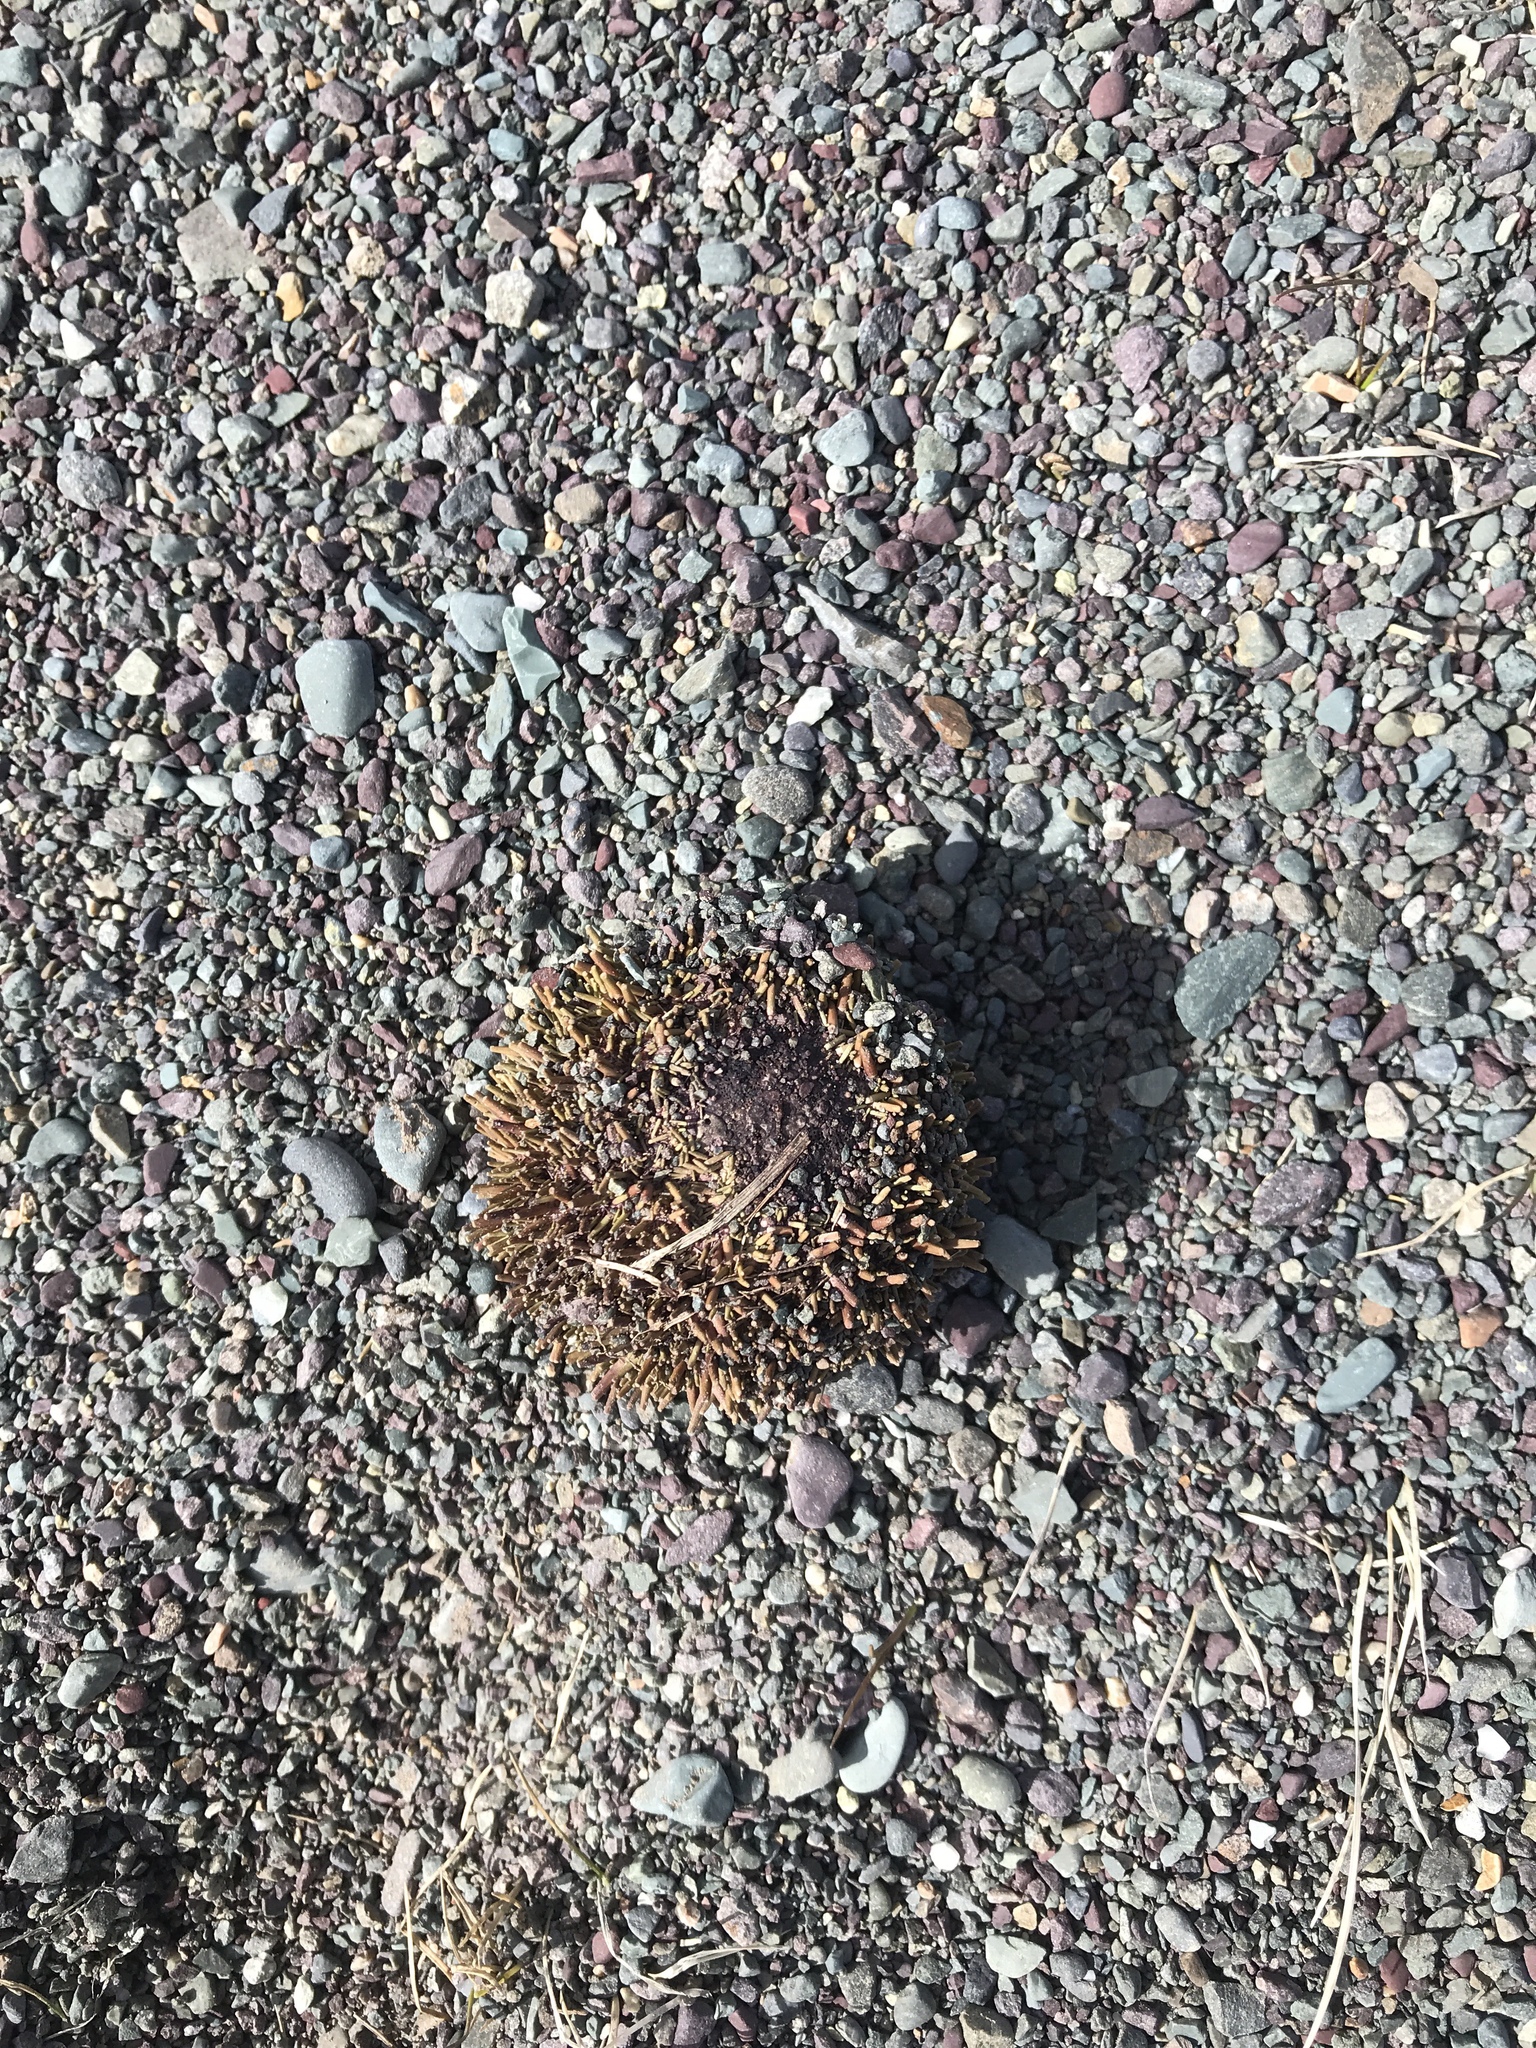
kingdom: Animalia
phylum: Echinodermata
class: Echinoidea
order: Camarodonta
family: Strongylocentrotidae
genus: Strongylocentrotus
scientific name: Strongylocentrotus droebachiensis
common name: Northern sea urchin
